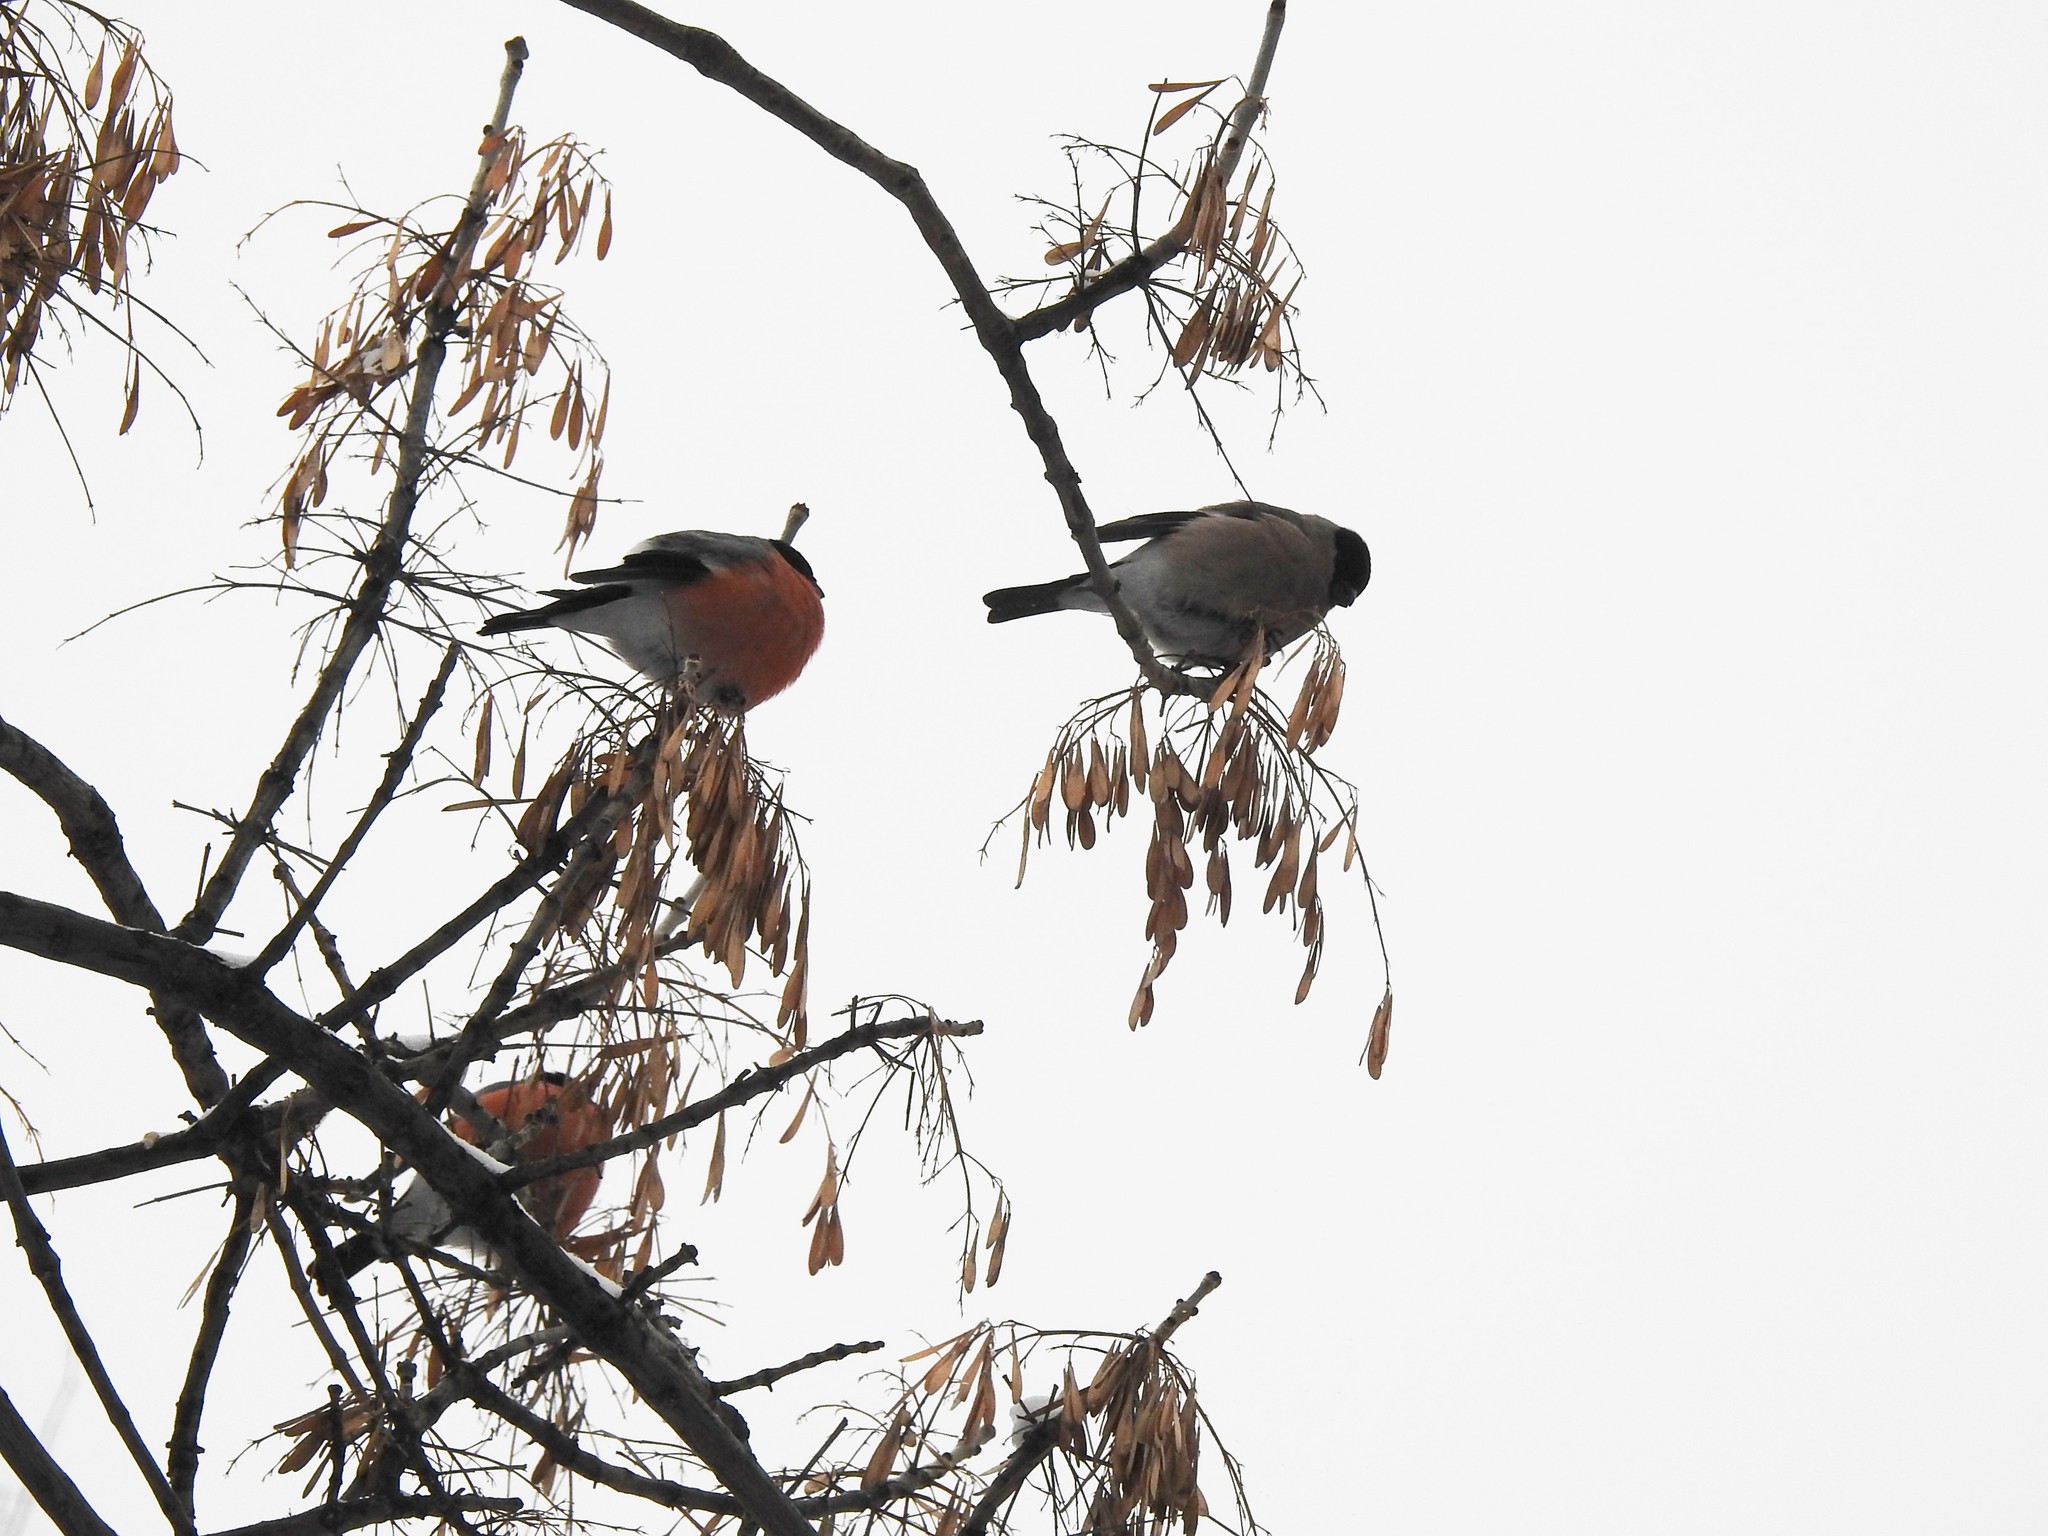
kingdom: Animalia
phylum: Chordata
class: Aves
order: Passeriformes
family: Fringillidae
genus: Pyrrhula
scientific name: Pyrrhula pyrrhula
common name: Eurasian bullfinch
